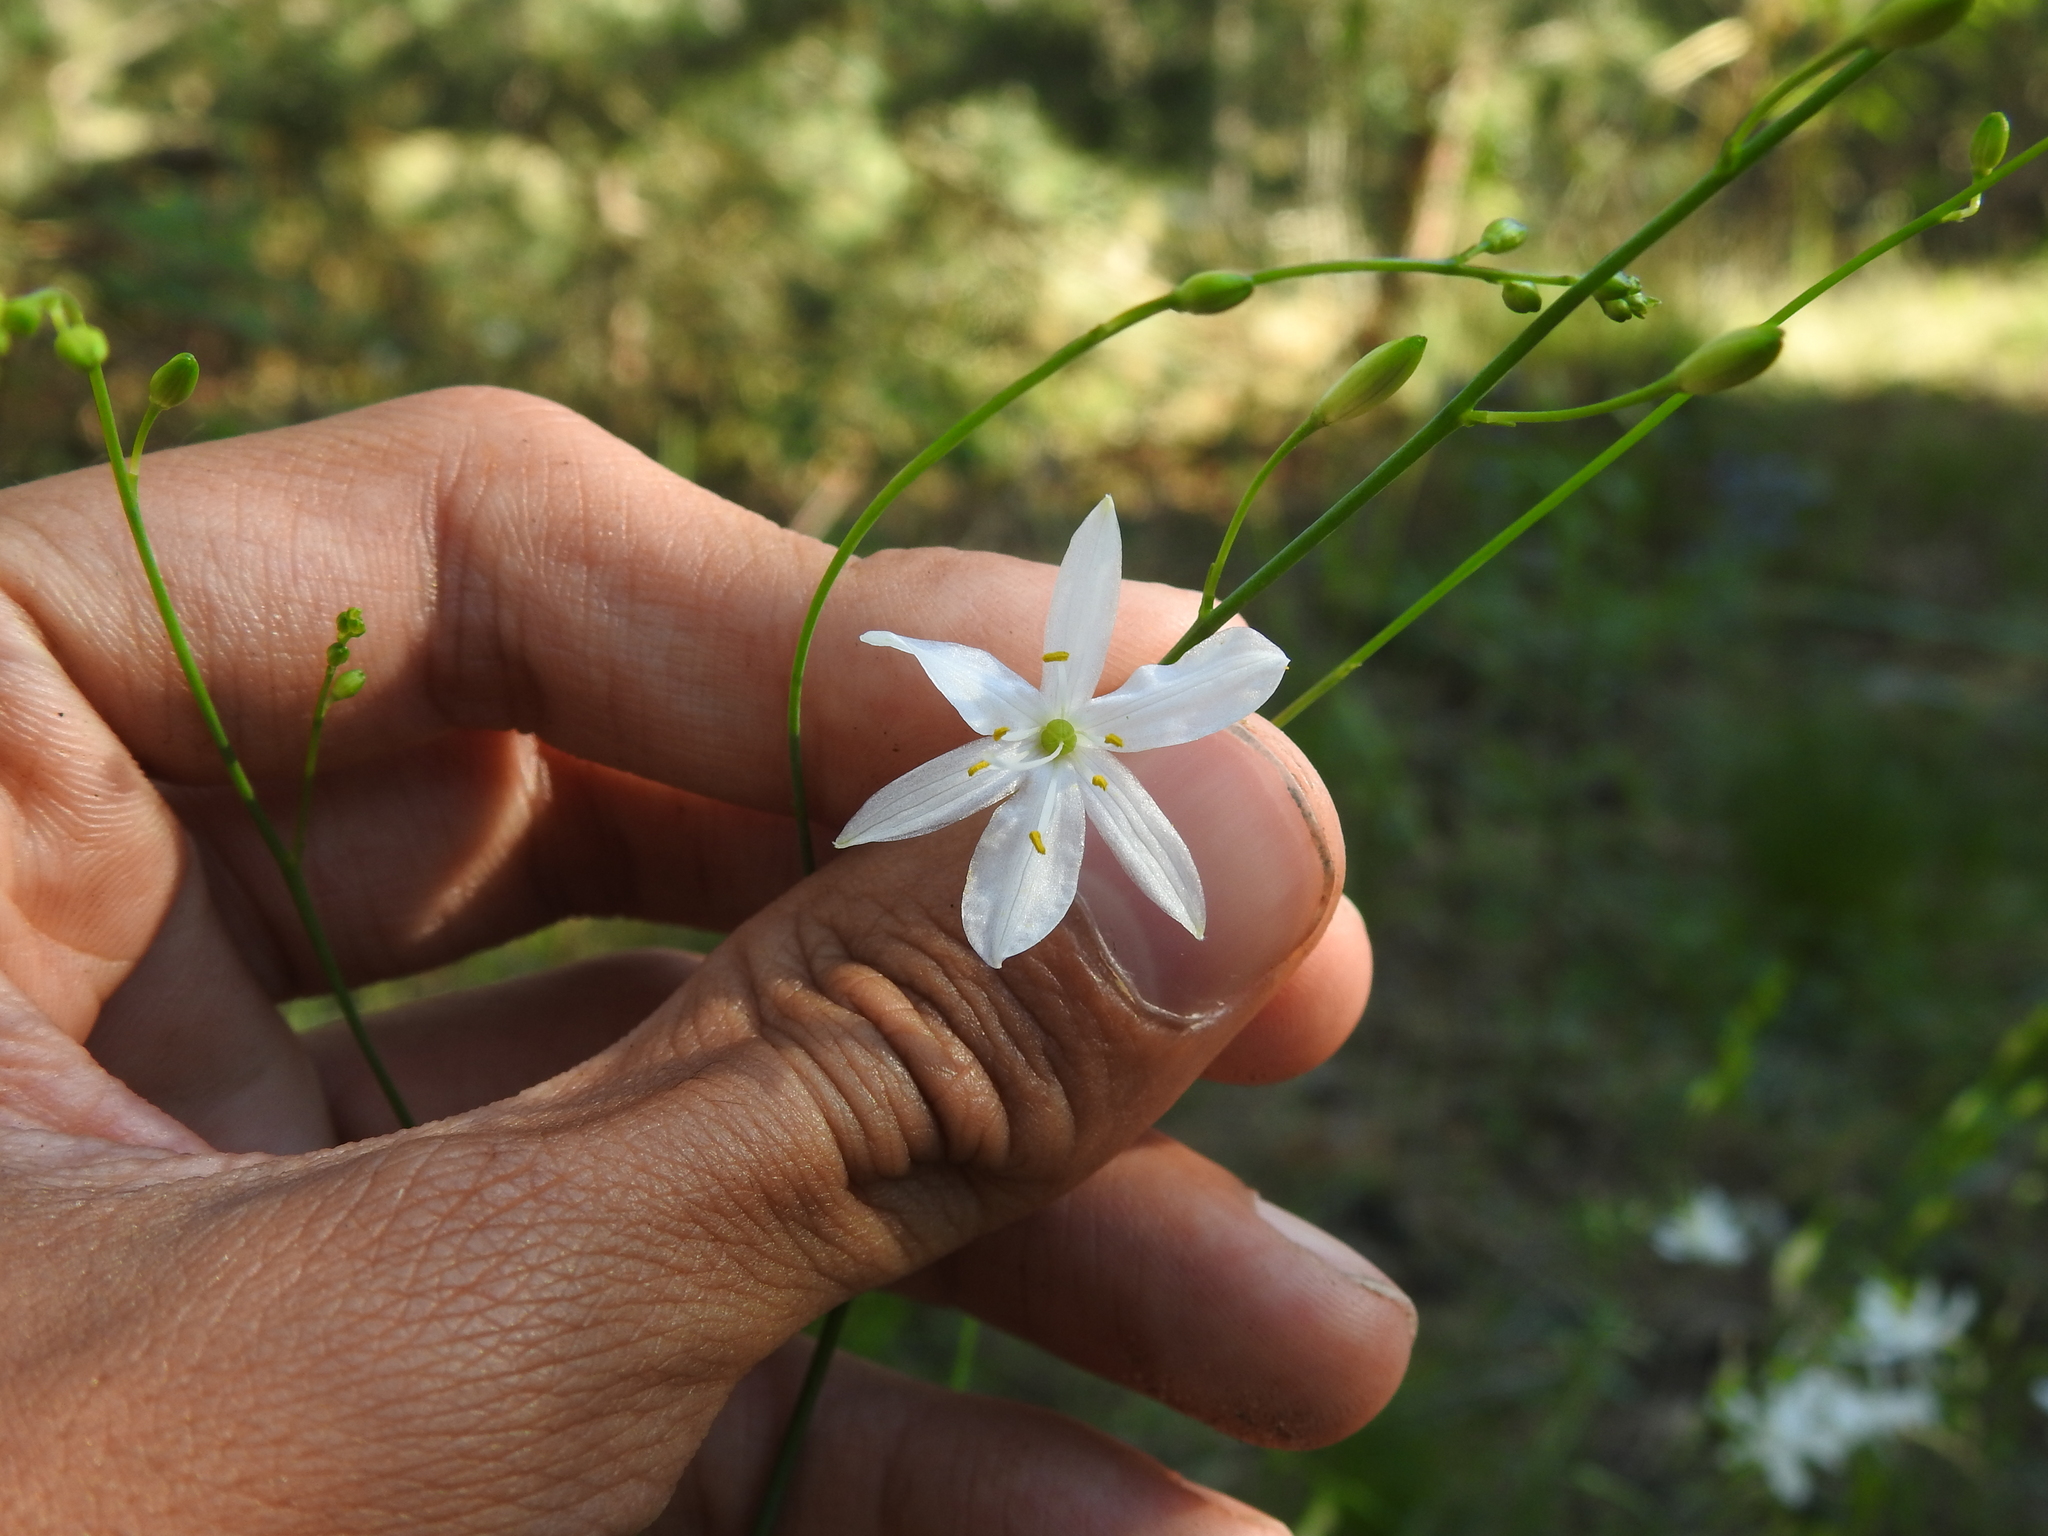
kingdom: Plantae
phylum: Tracheophyta
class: Liliopsida
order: Asparagales
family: Asparagaceae
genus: Anthericum
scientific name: Anthericum ramosum
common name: Branched st. bernard's-lily
